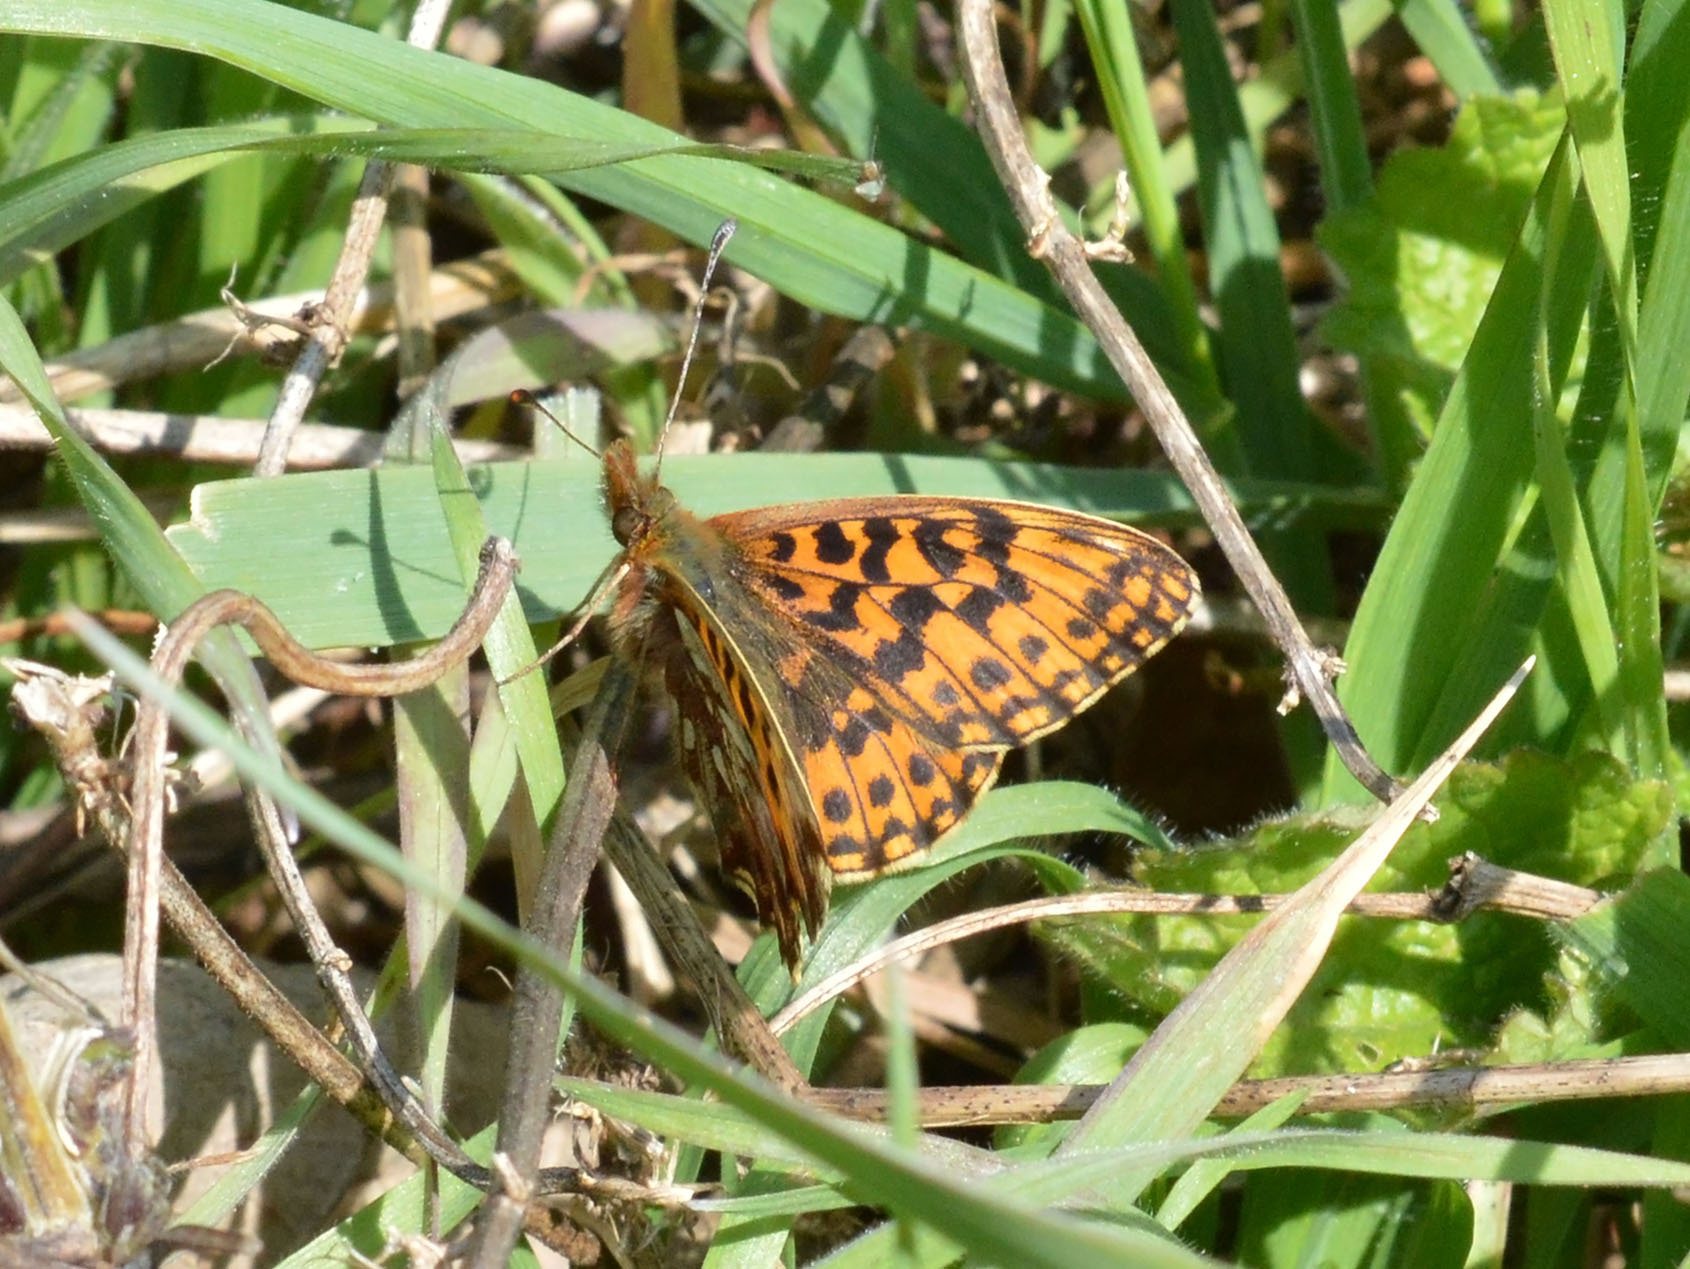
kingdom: Animalia
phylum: Arthropoda
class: Insecta
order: Lepidoptera
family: Nymphalidae
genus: Boloria
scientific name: Boloria dia
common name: Weaver's fritillary
